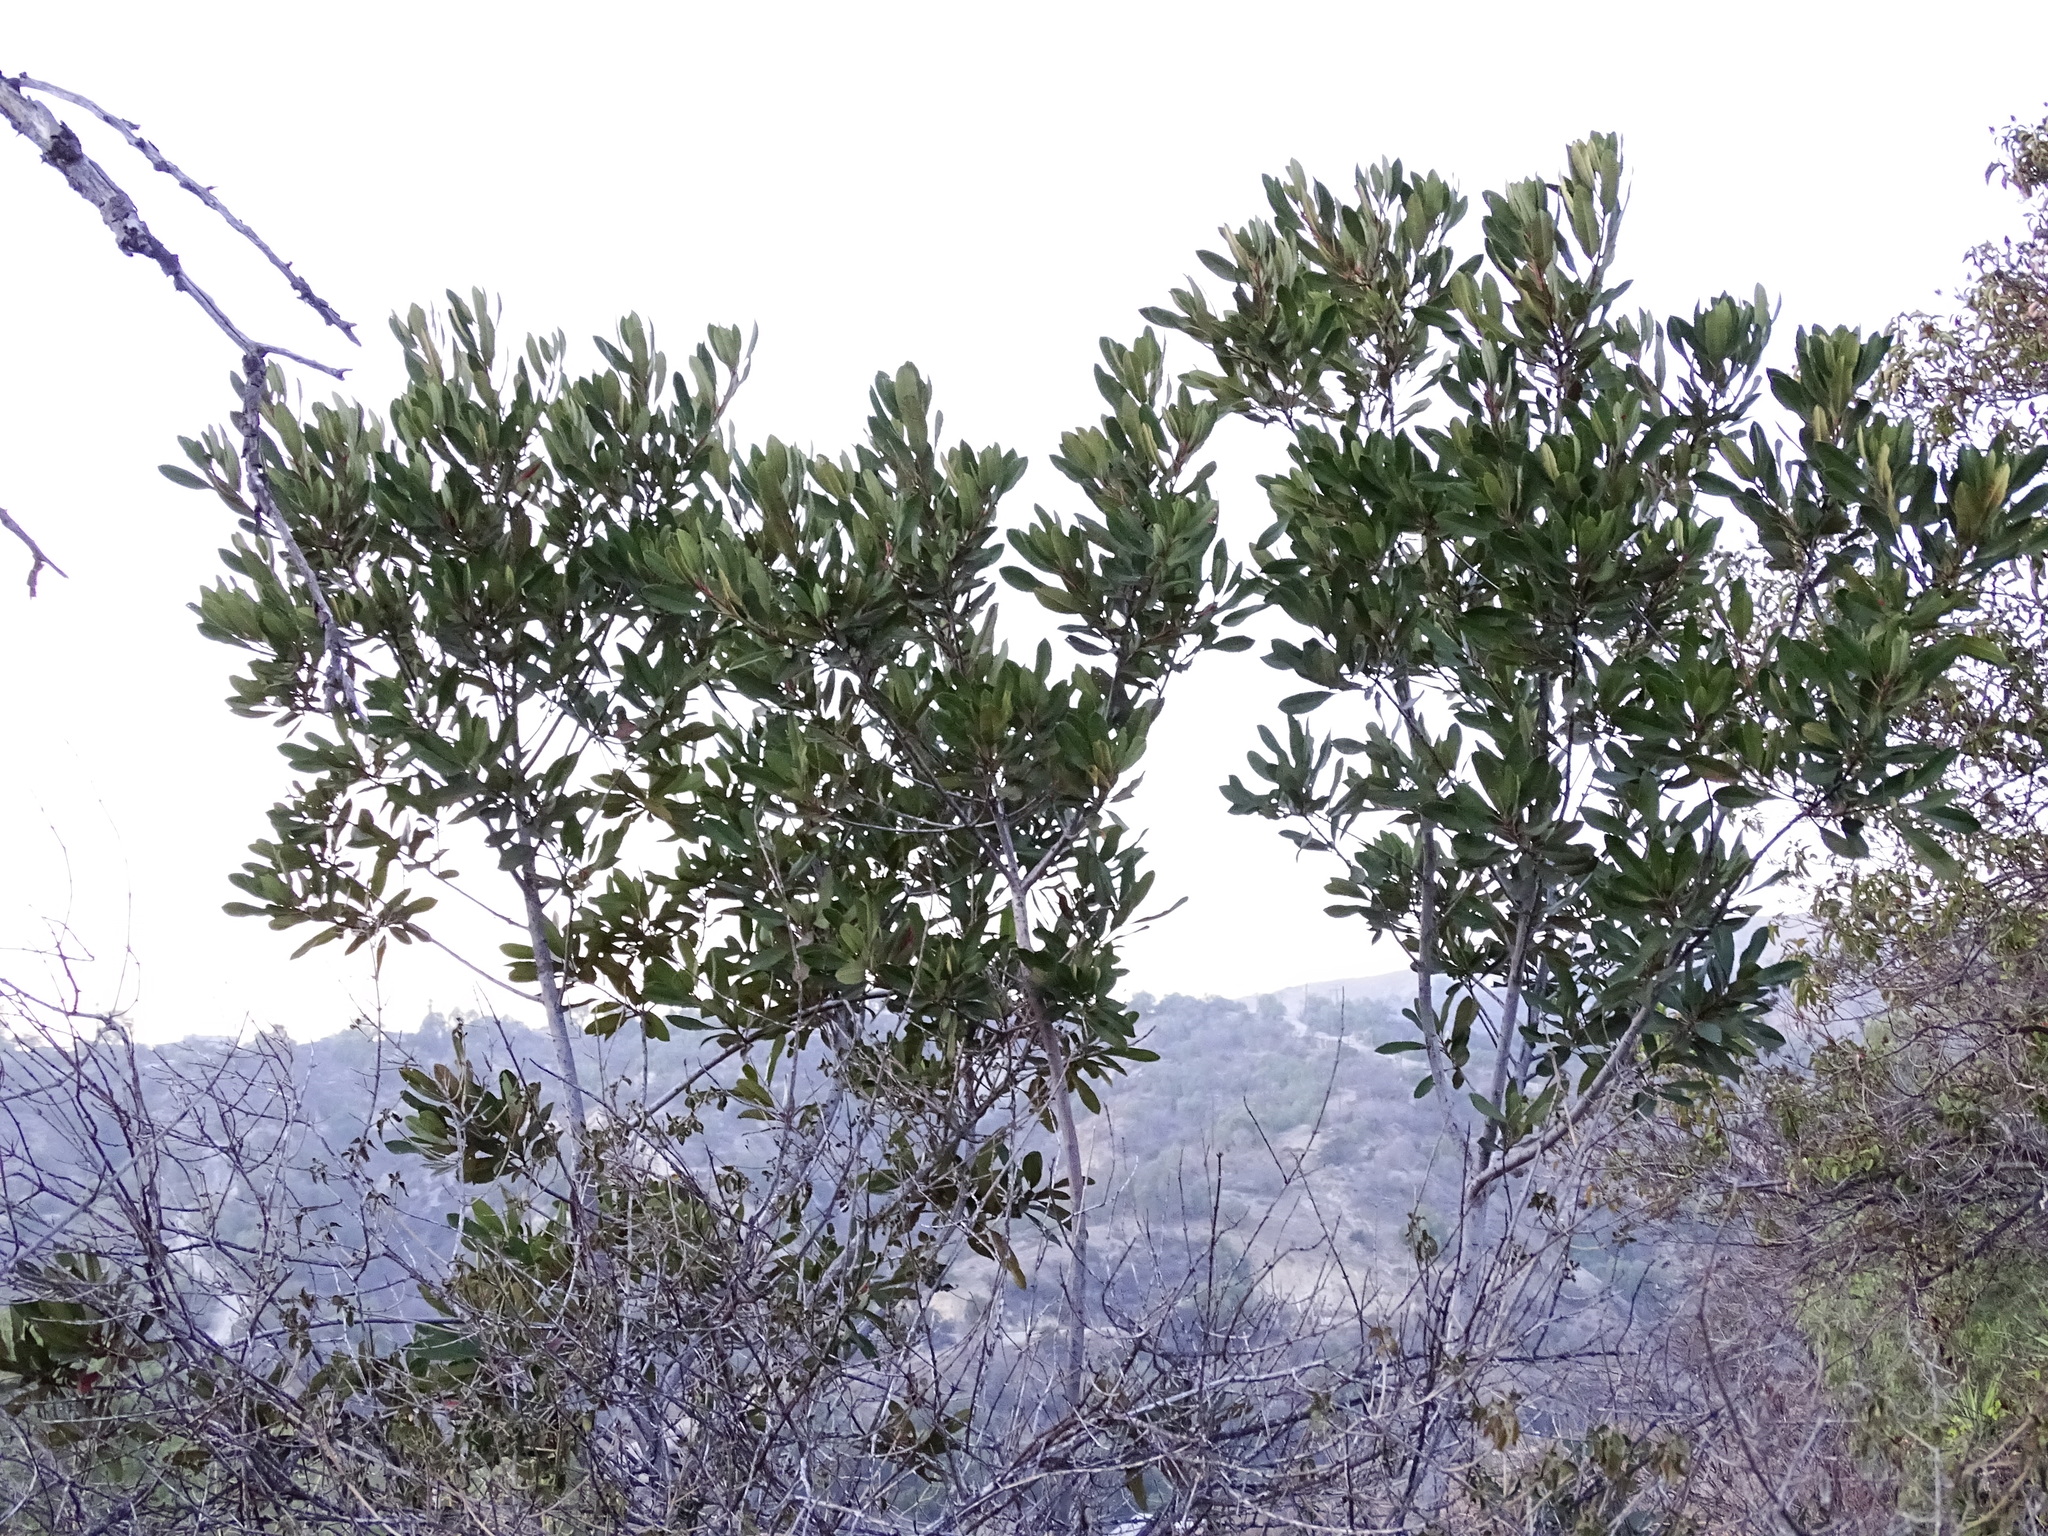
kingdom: Plantae
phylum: Tracheophyta
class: Magnoliopsida
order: Rosales
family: Rosaceae
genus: Heteromeles
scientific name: Heteromeles arbutifolia
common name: California-holly
